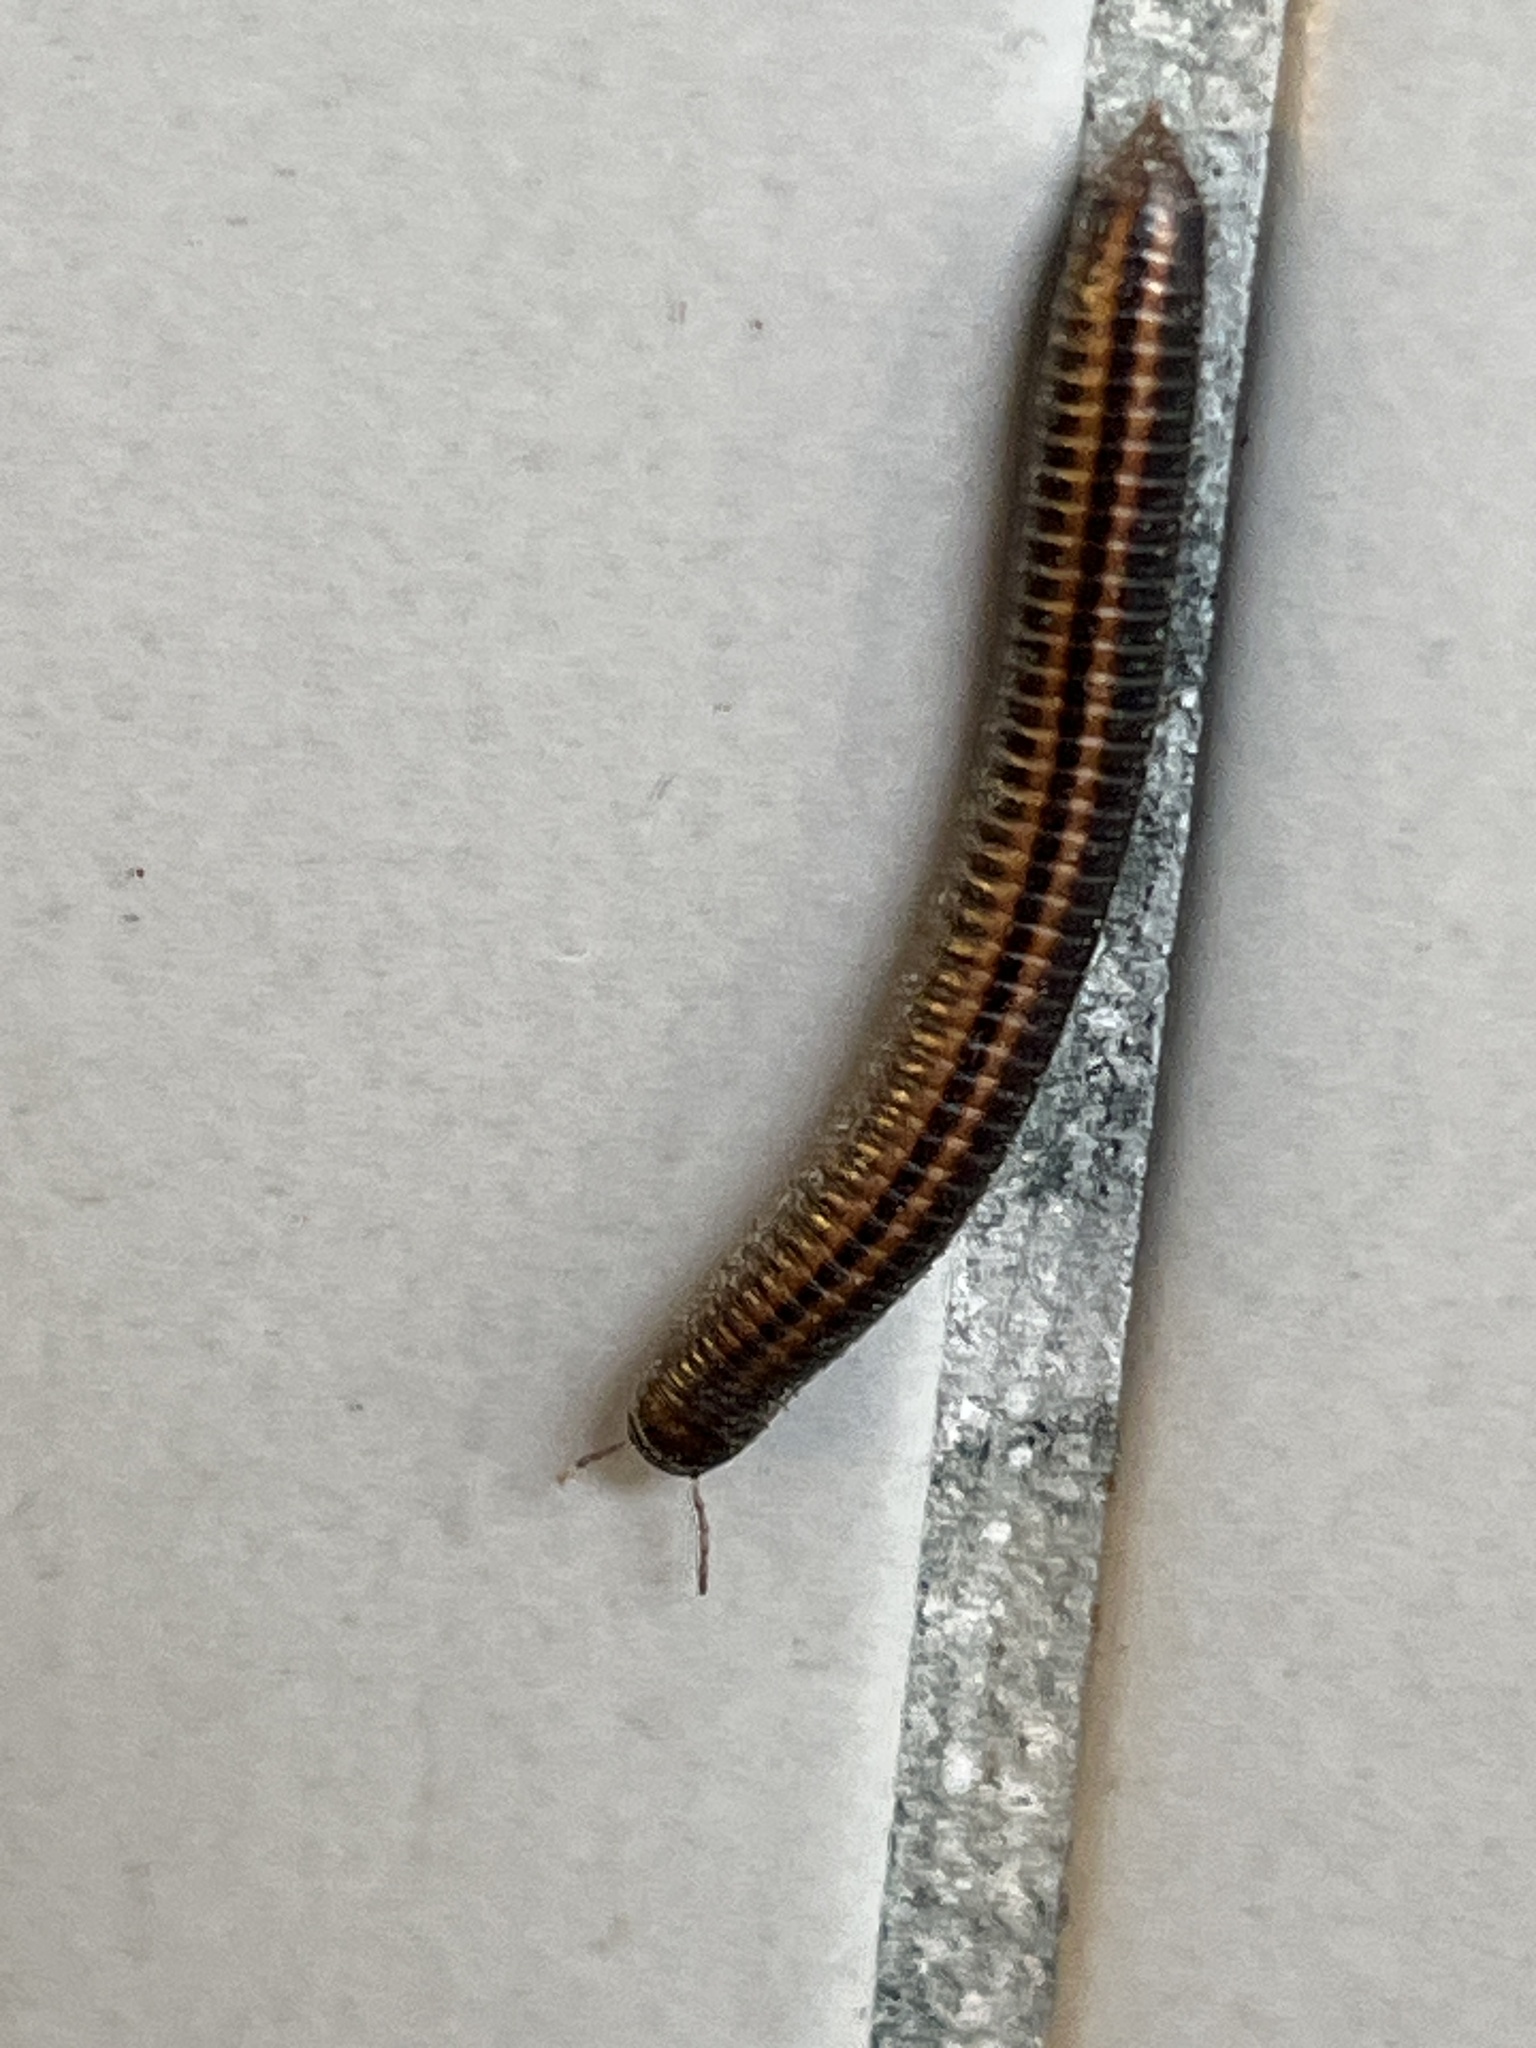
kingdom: Animalia
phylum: Arthropoda
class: Diplopoda
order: Julida
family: Julidae
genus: Ommatoiulus
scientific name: Ommatoiulus sabulosus
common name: Striped millipede
